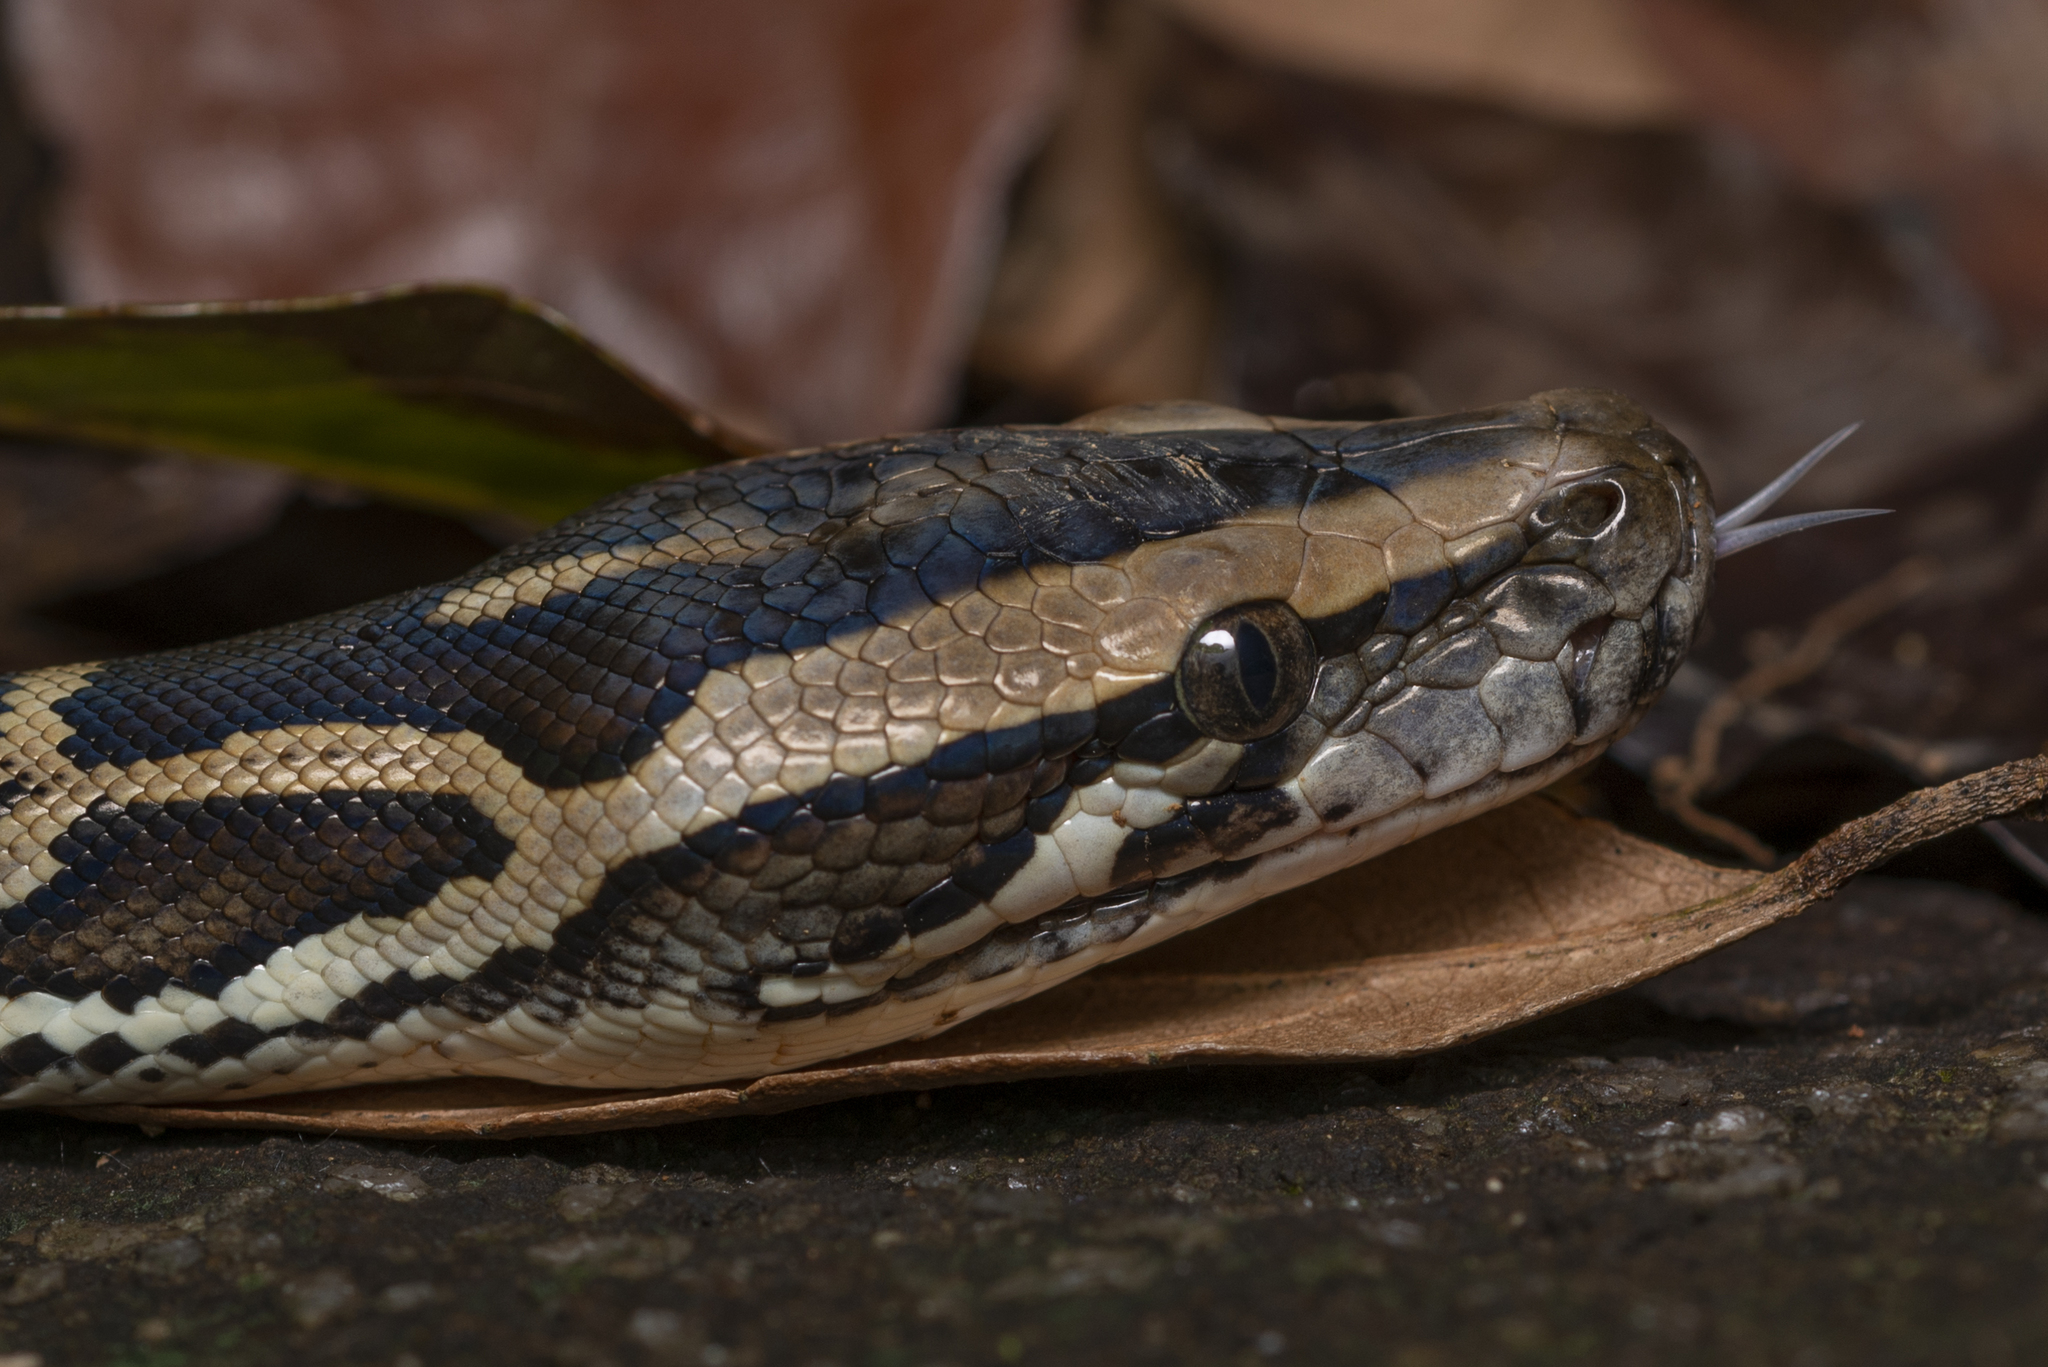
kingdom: Animalia
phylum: Chordata
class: Squamata
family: Pythonidae
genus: Python
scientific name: Python bivittatus
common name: Burmese python
